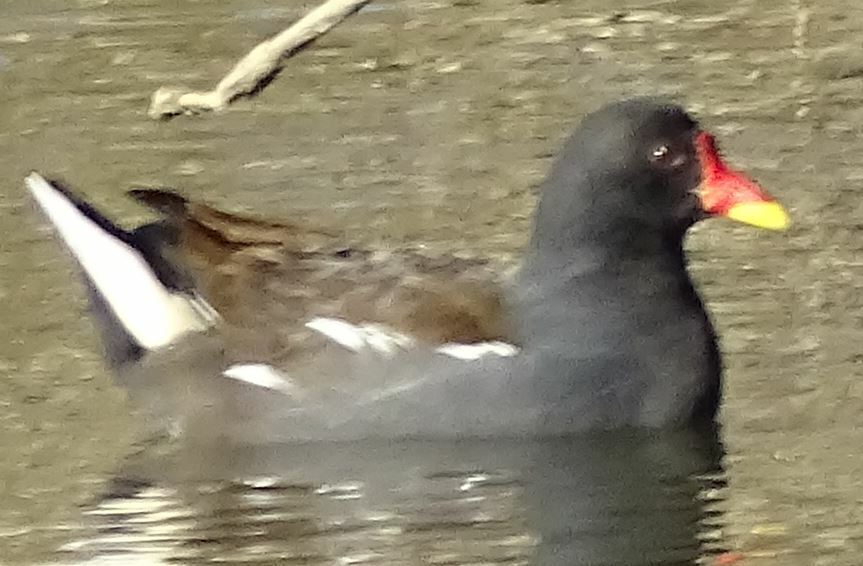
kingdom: Animalia
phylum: Chordata
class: Aves
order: Gruiformes
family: Rallidae
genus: Gallinula
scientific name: Gallinula chloropus
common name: Common moorhen
